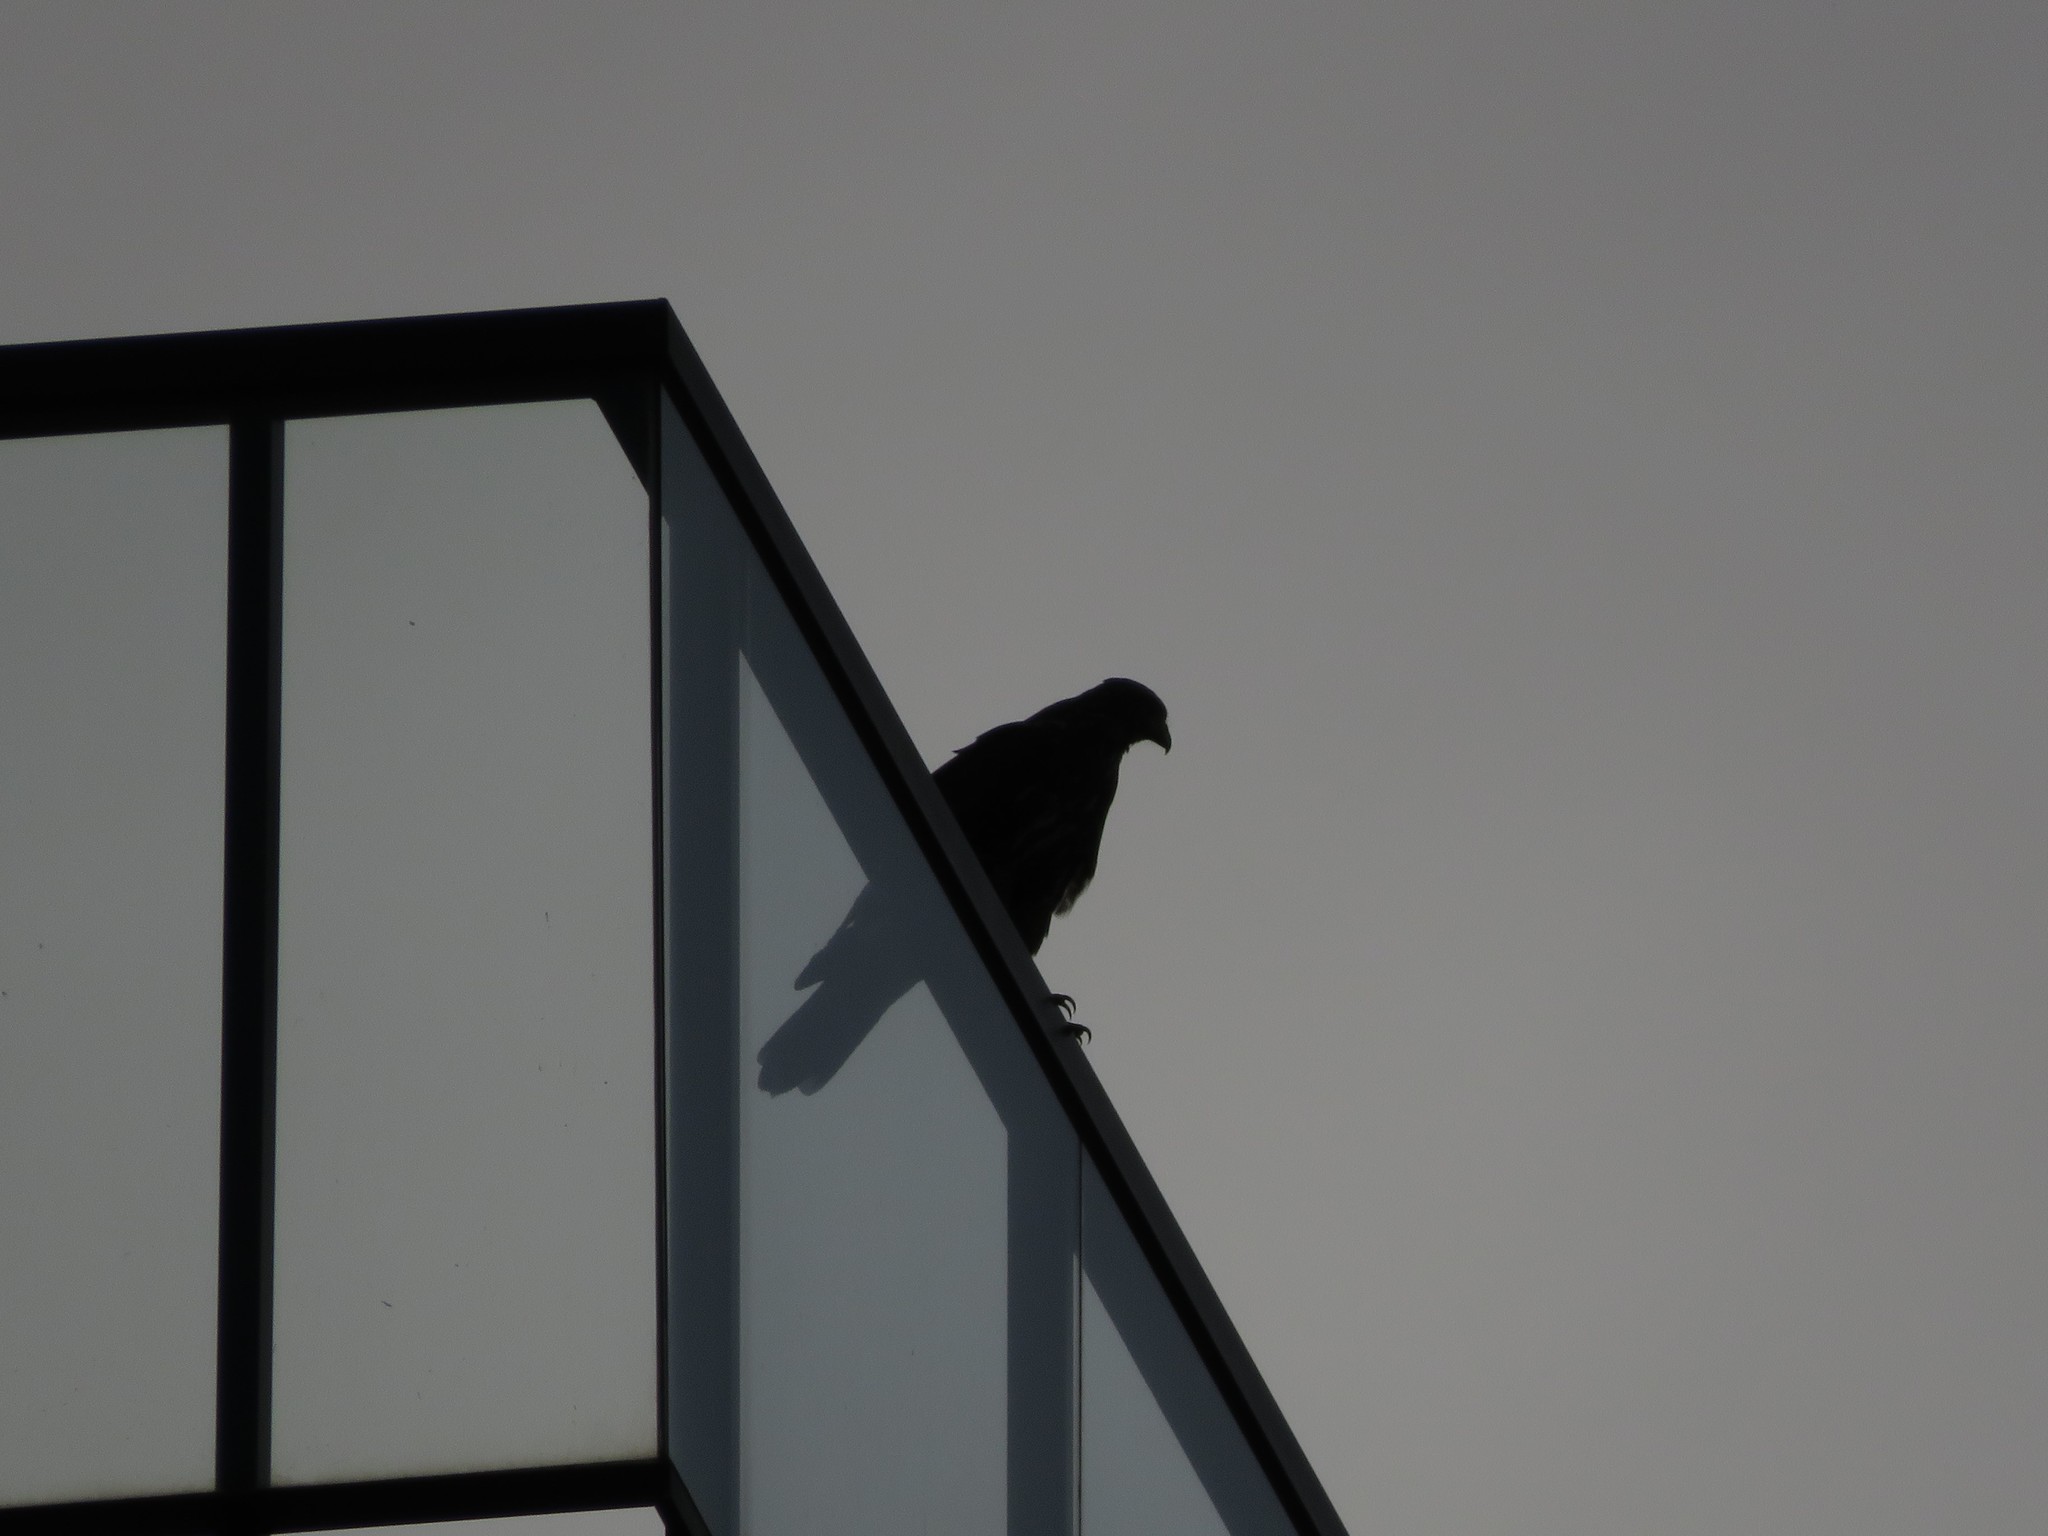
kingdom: Animalia
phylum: Chordata
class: Aves
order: Accipitriformes
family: Accipitridae
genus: Parabuteo
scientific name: Parabuteo unicinctus
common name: Harris's hawk
